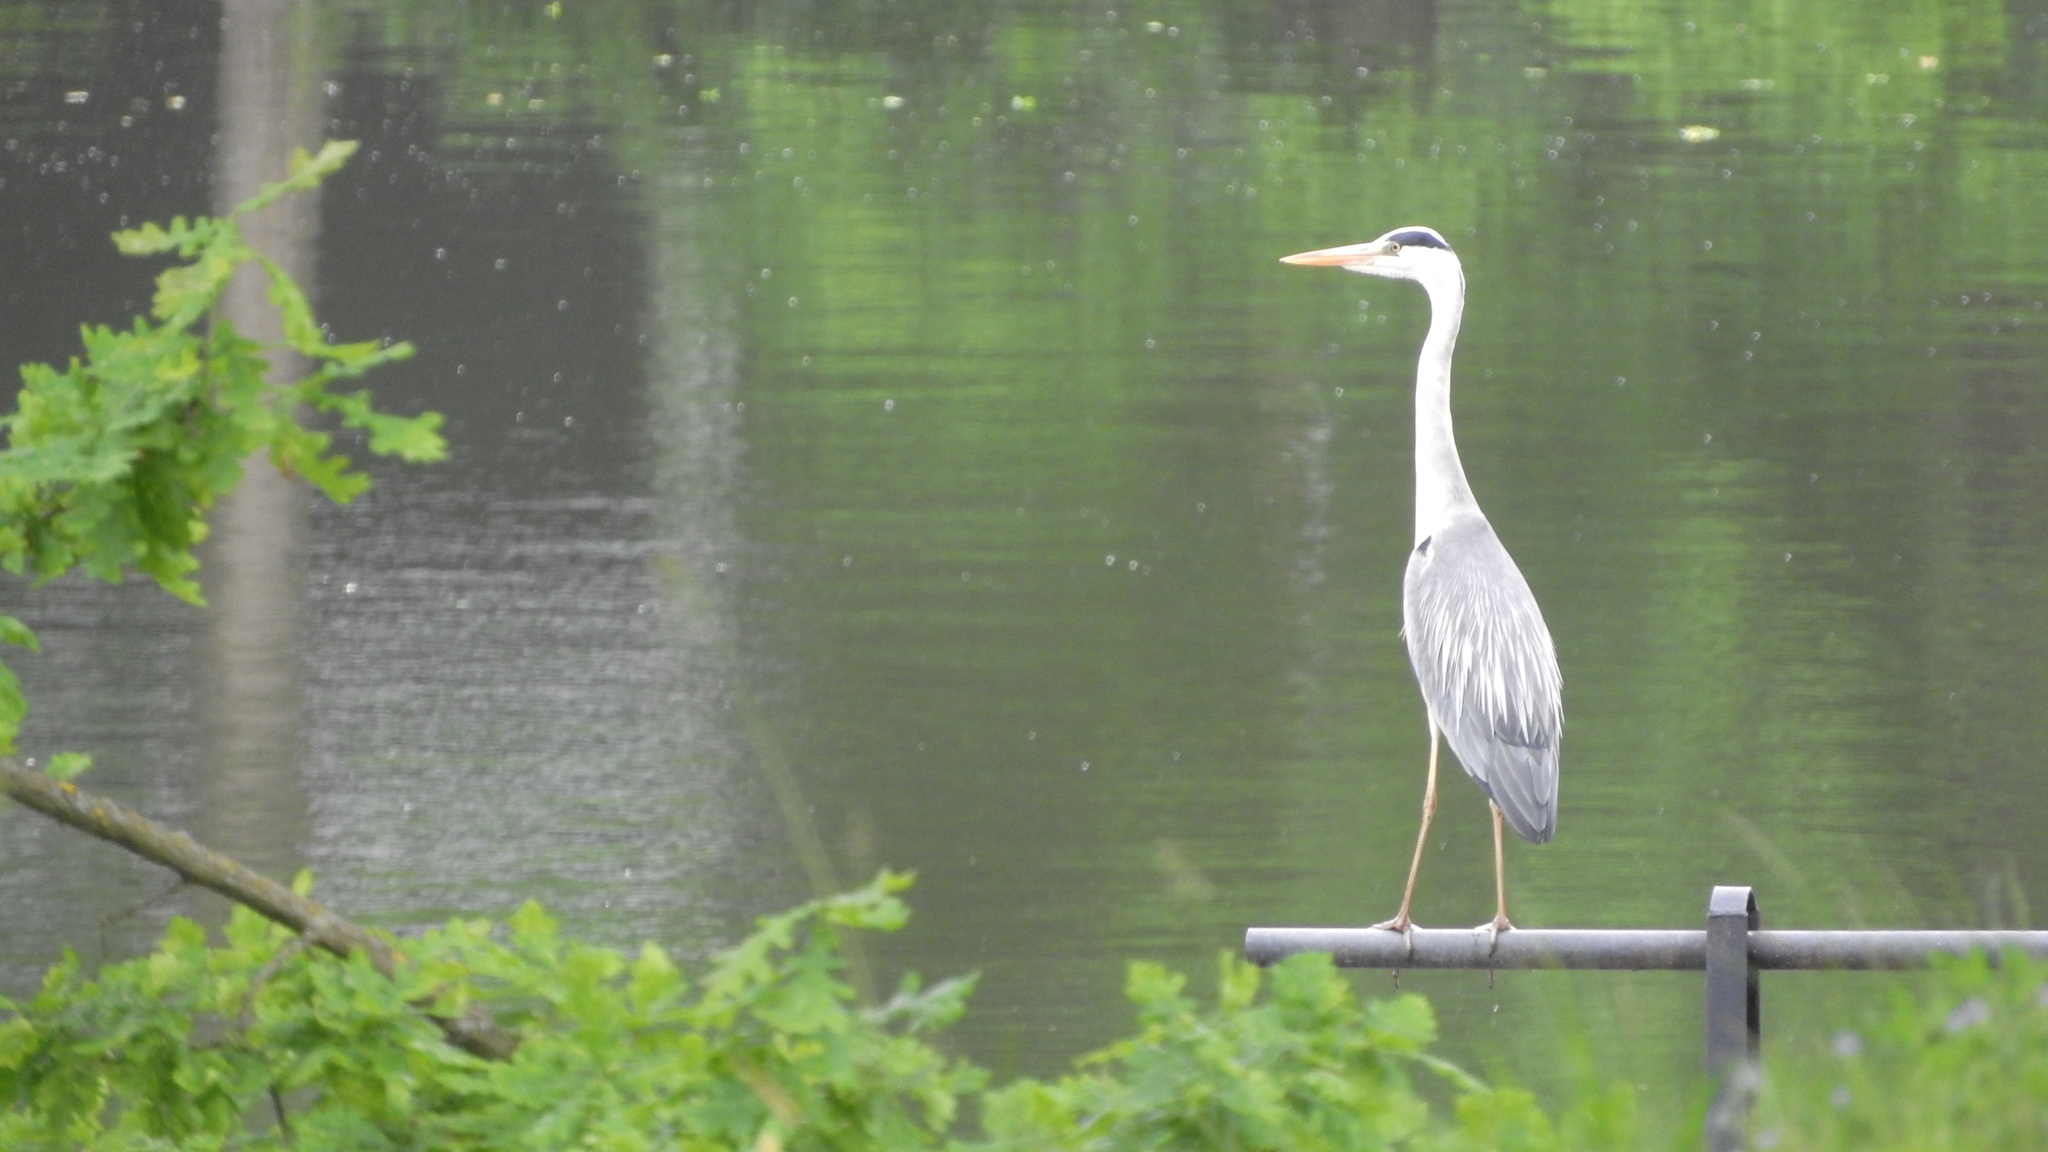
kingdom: Animalia
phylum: Chordata
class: Aves
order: Pelecaniformes
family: Ardeidae
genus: Ardea
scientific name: Ardea cinerea
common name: Grey heron
